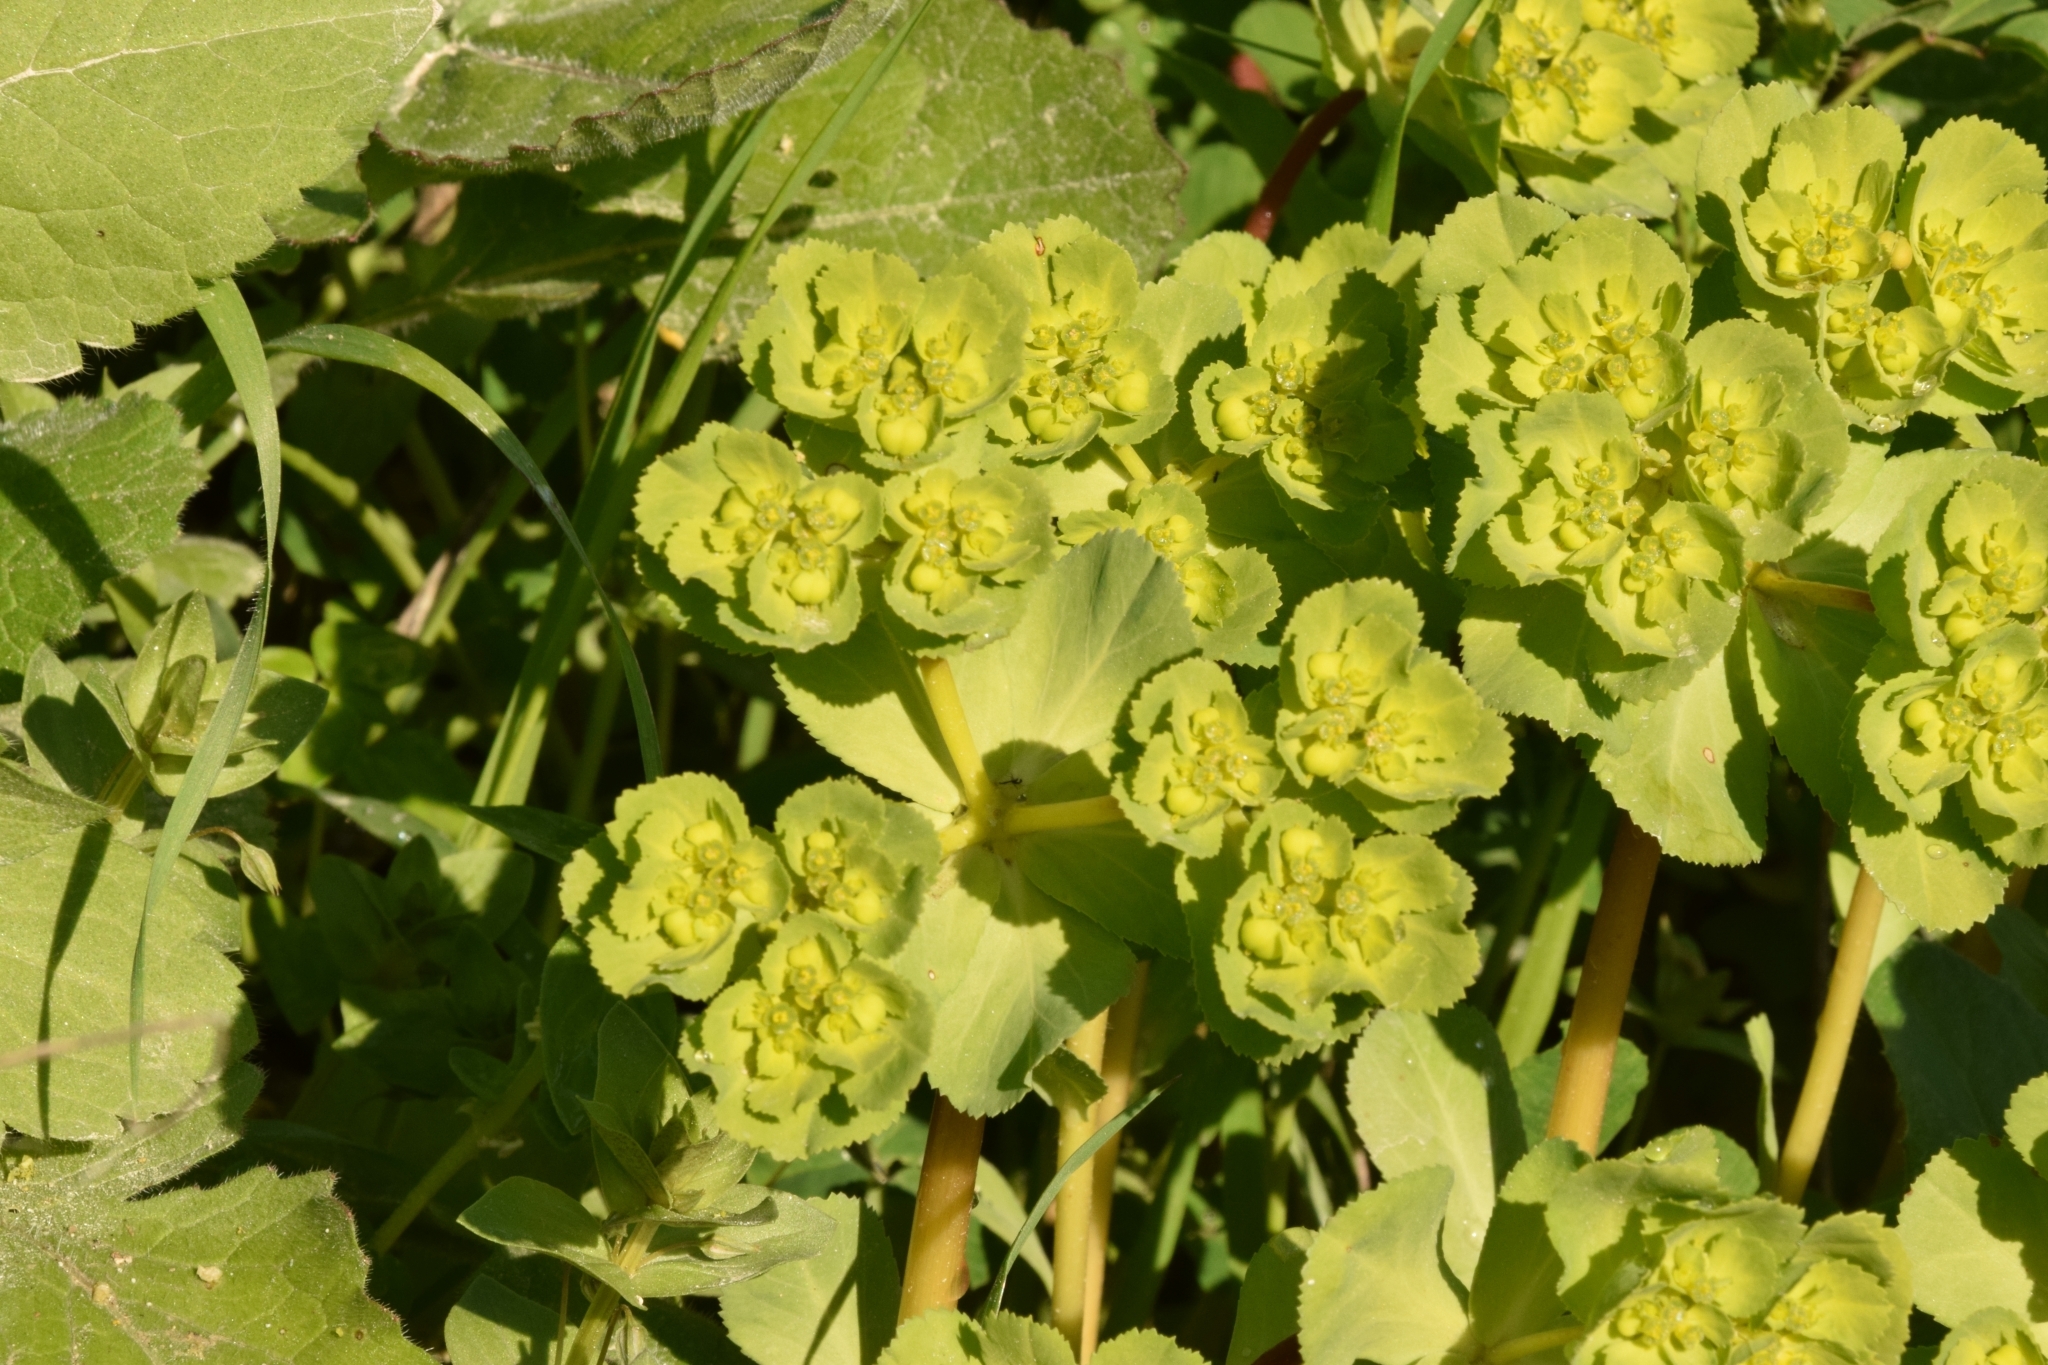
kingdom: Plantae
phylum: Tracheophyta
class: Magnoliopsida
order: Malpighiales
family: Euphorbiaceae
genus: Euphorbia
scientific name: Euphorbia helioscopia
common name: Sun spurge
